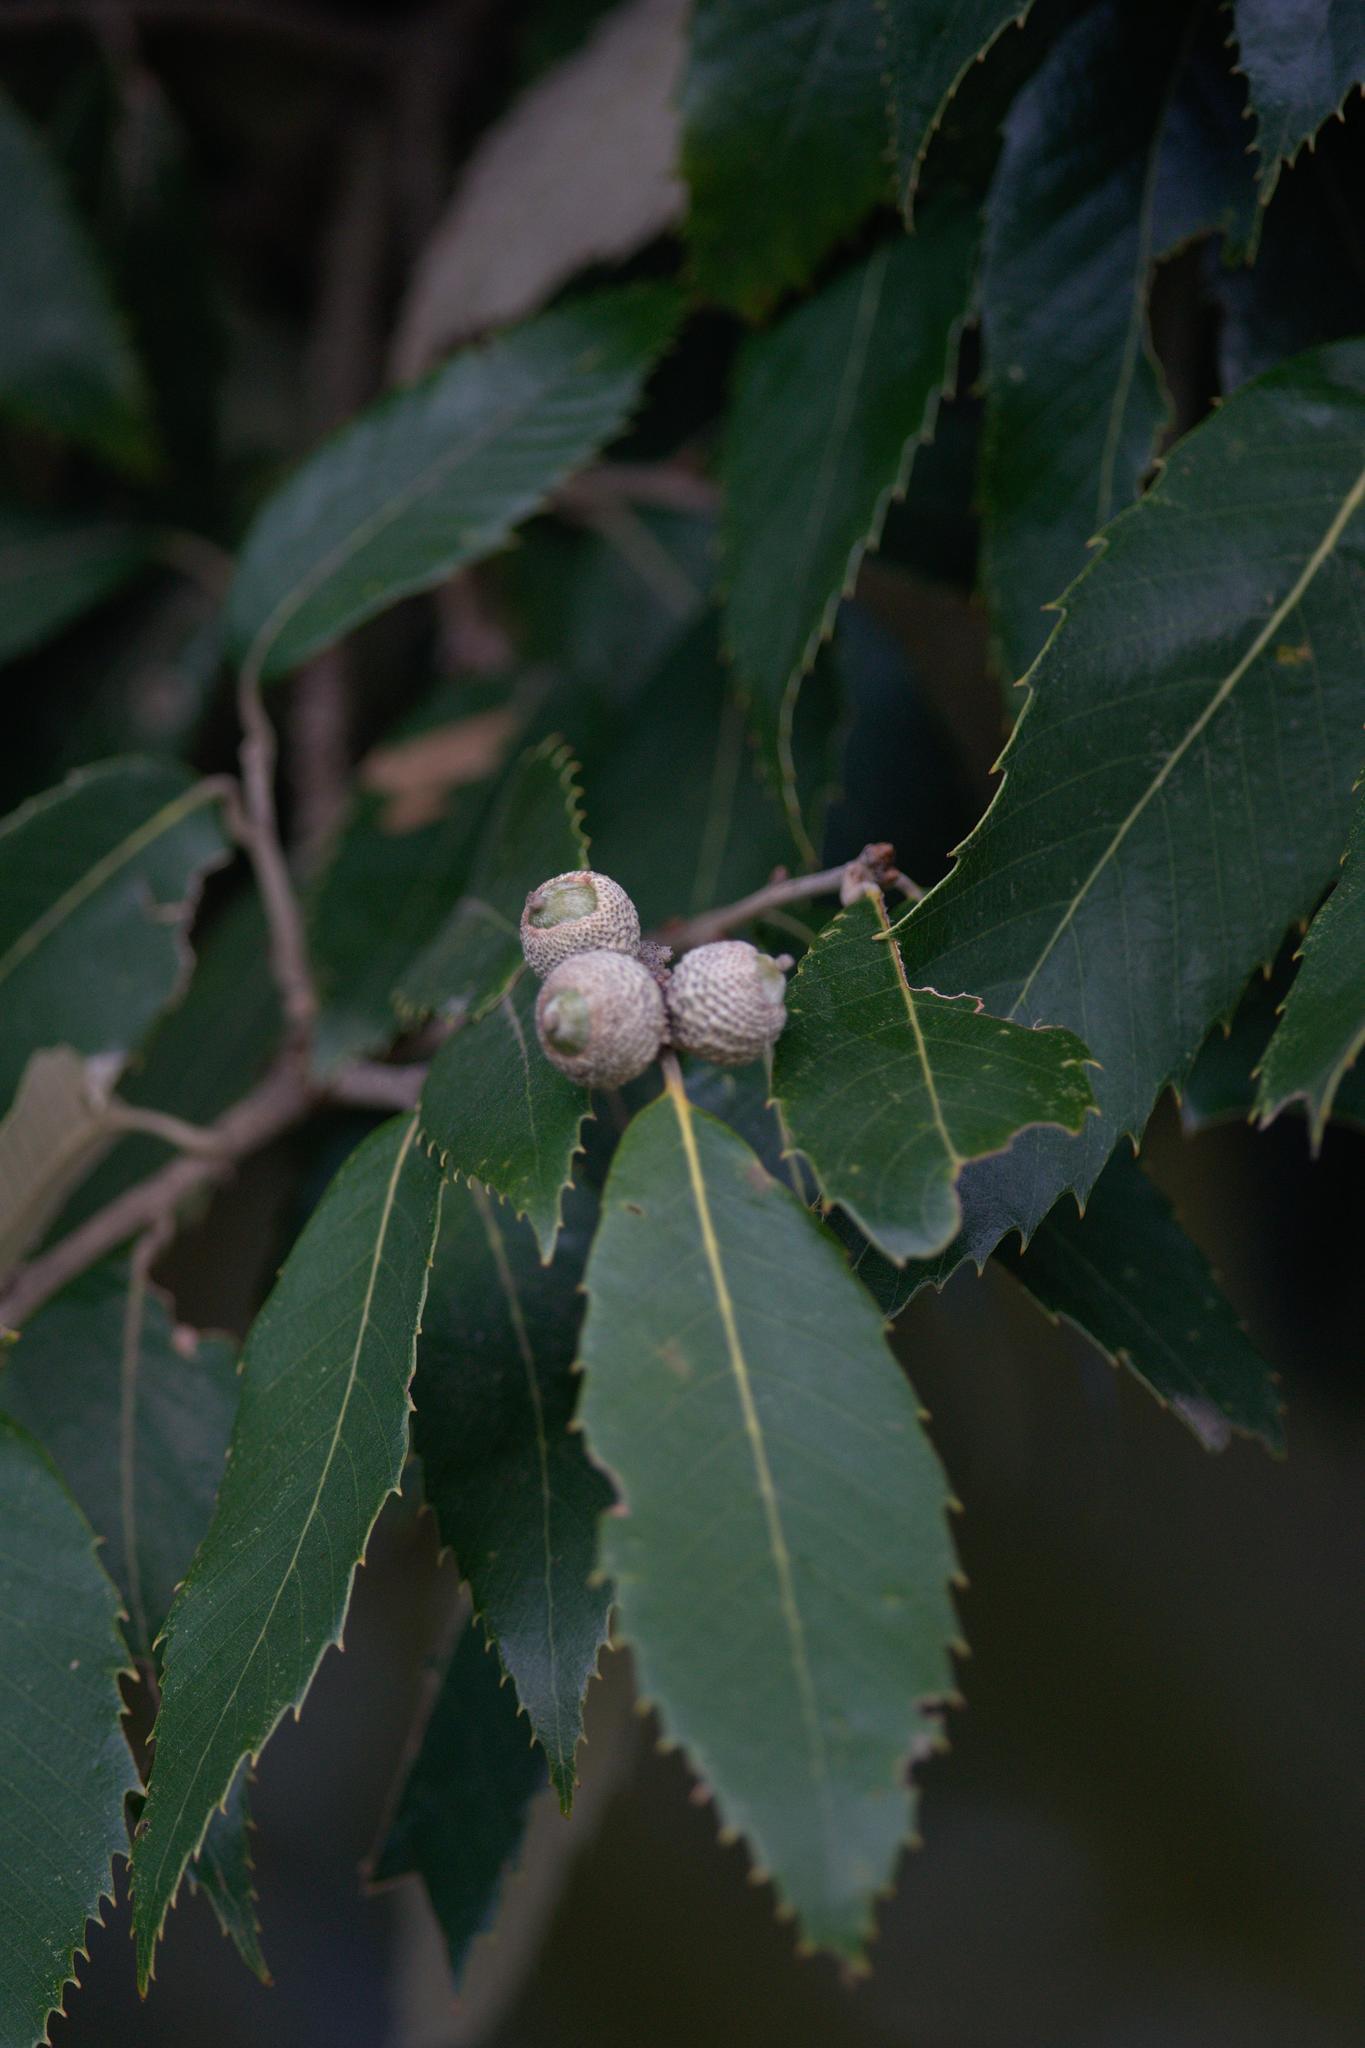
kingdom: Plantae
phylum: Tracheophyta
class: Magnoliopsida
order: Fagales
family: Fagaceae
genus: Quercus
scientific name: Quercus leucotrichophora
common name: Banj oak
